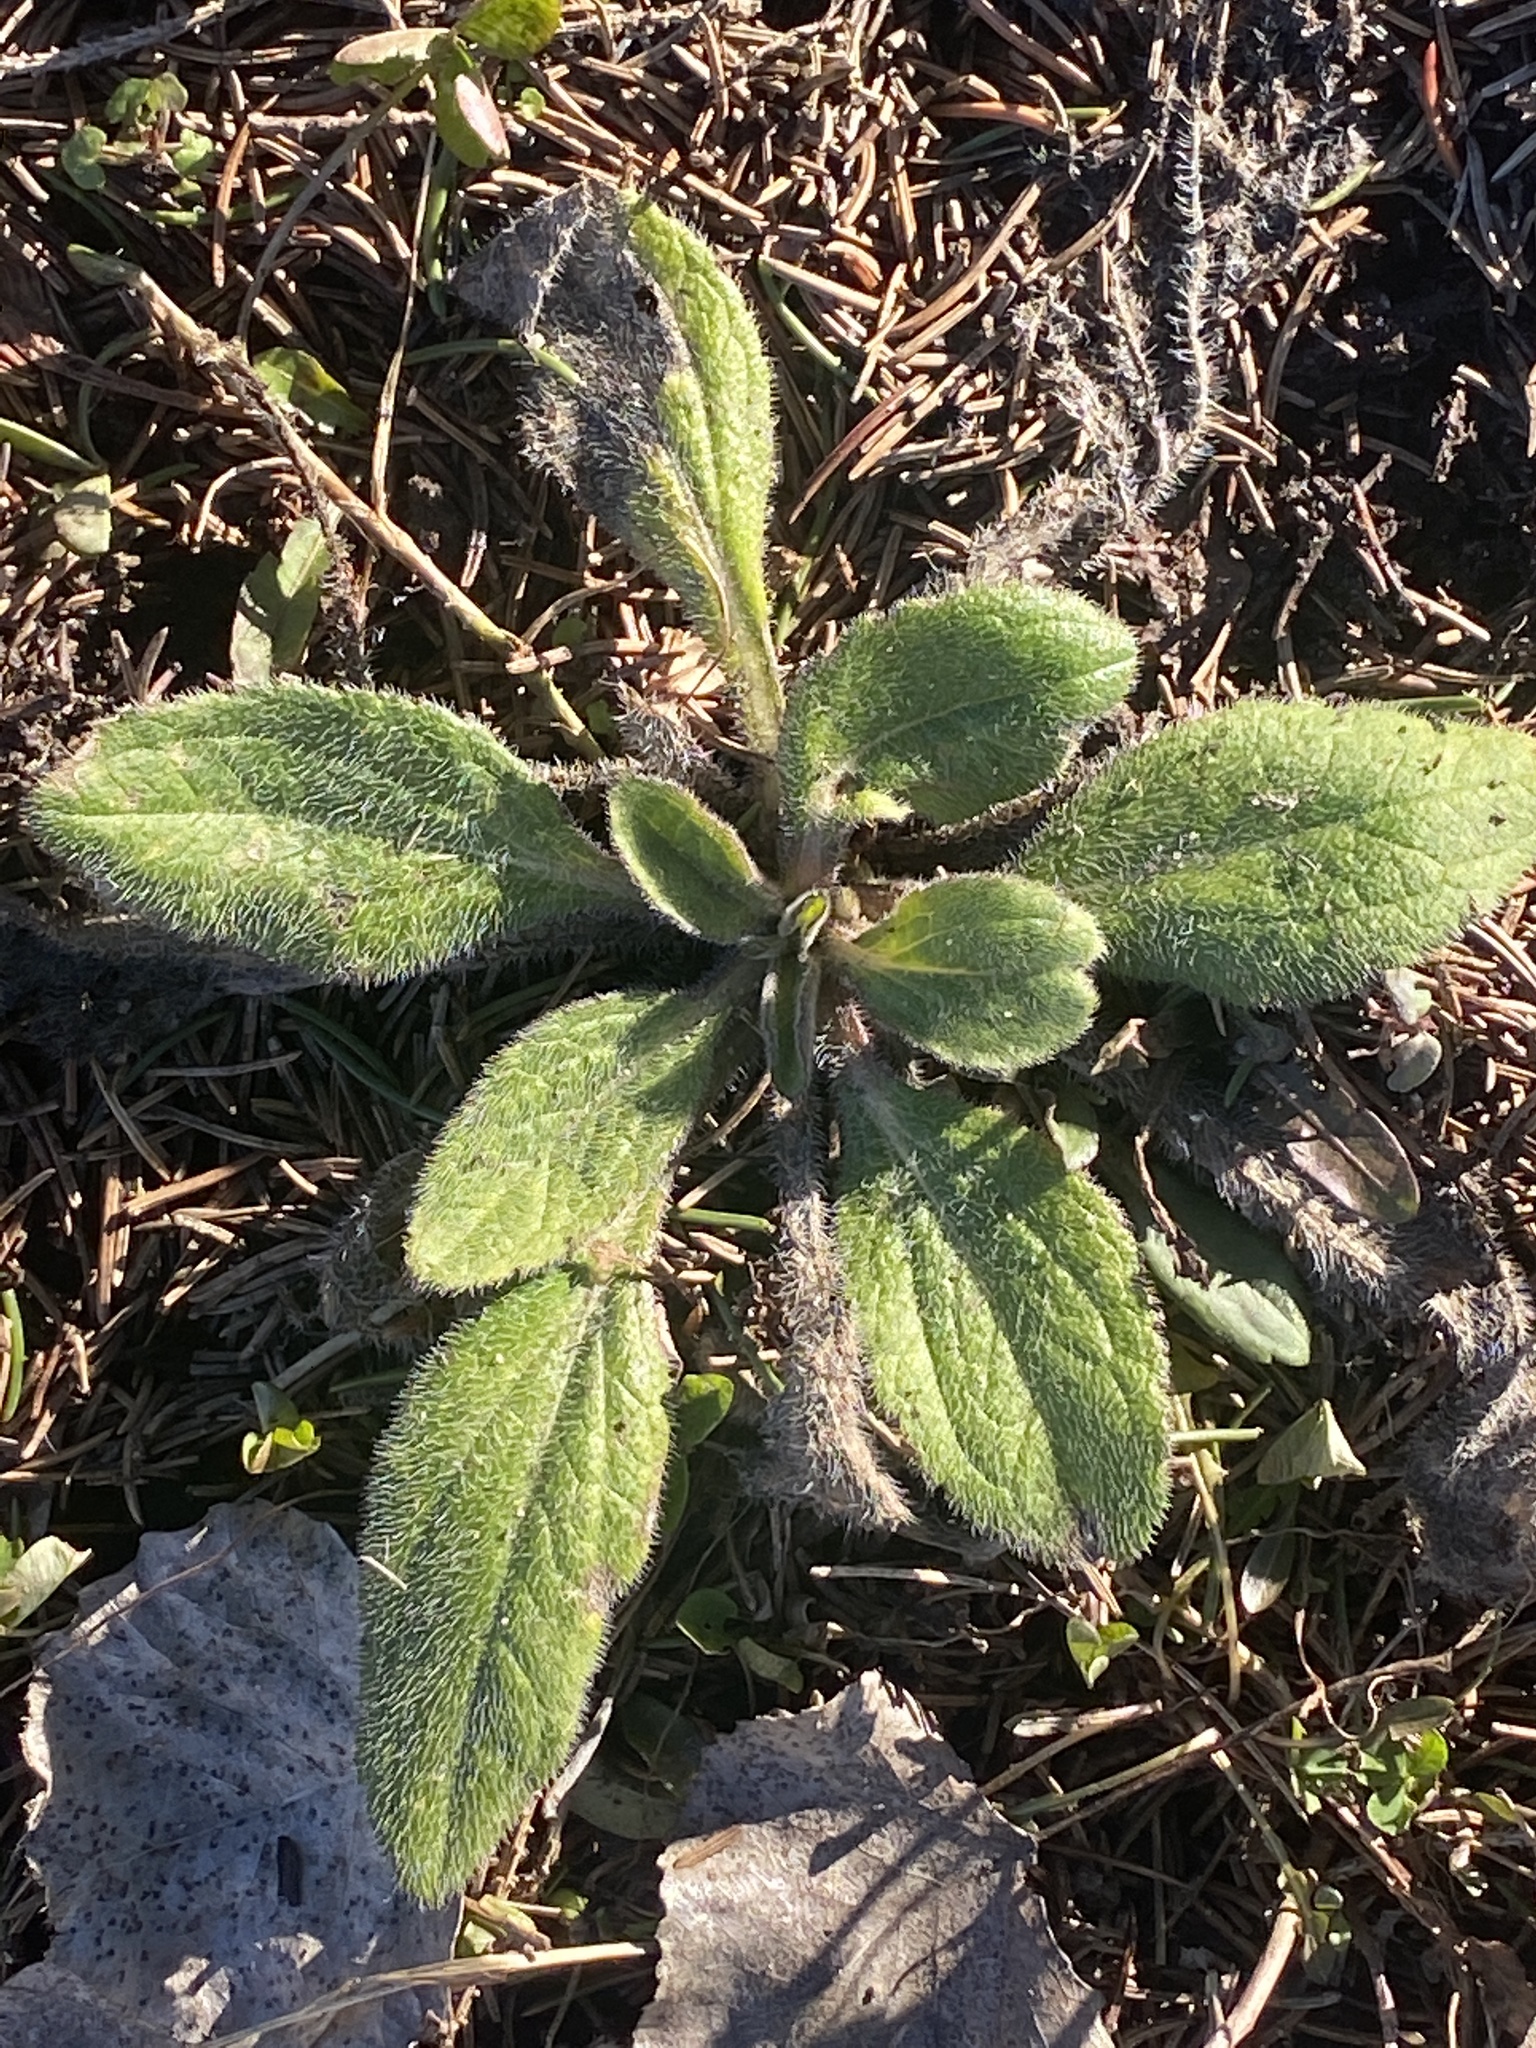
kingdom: Plantae
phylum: Tracheophyta
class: Magnoliopsida
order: Asterales
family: Asteraceae
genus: Rudbeckia
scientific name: Rudbeckia hirta
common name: Black-eyed-susan
